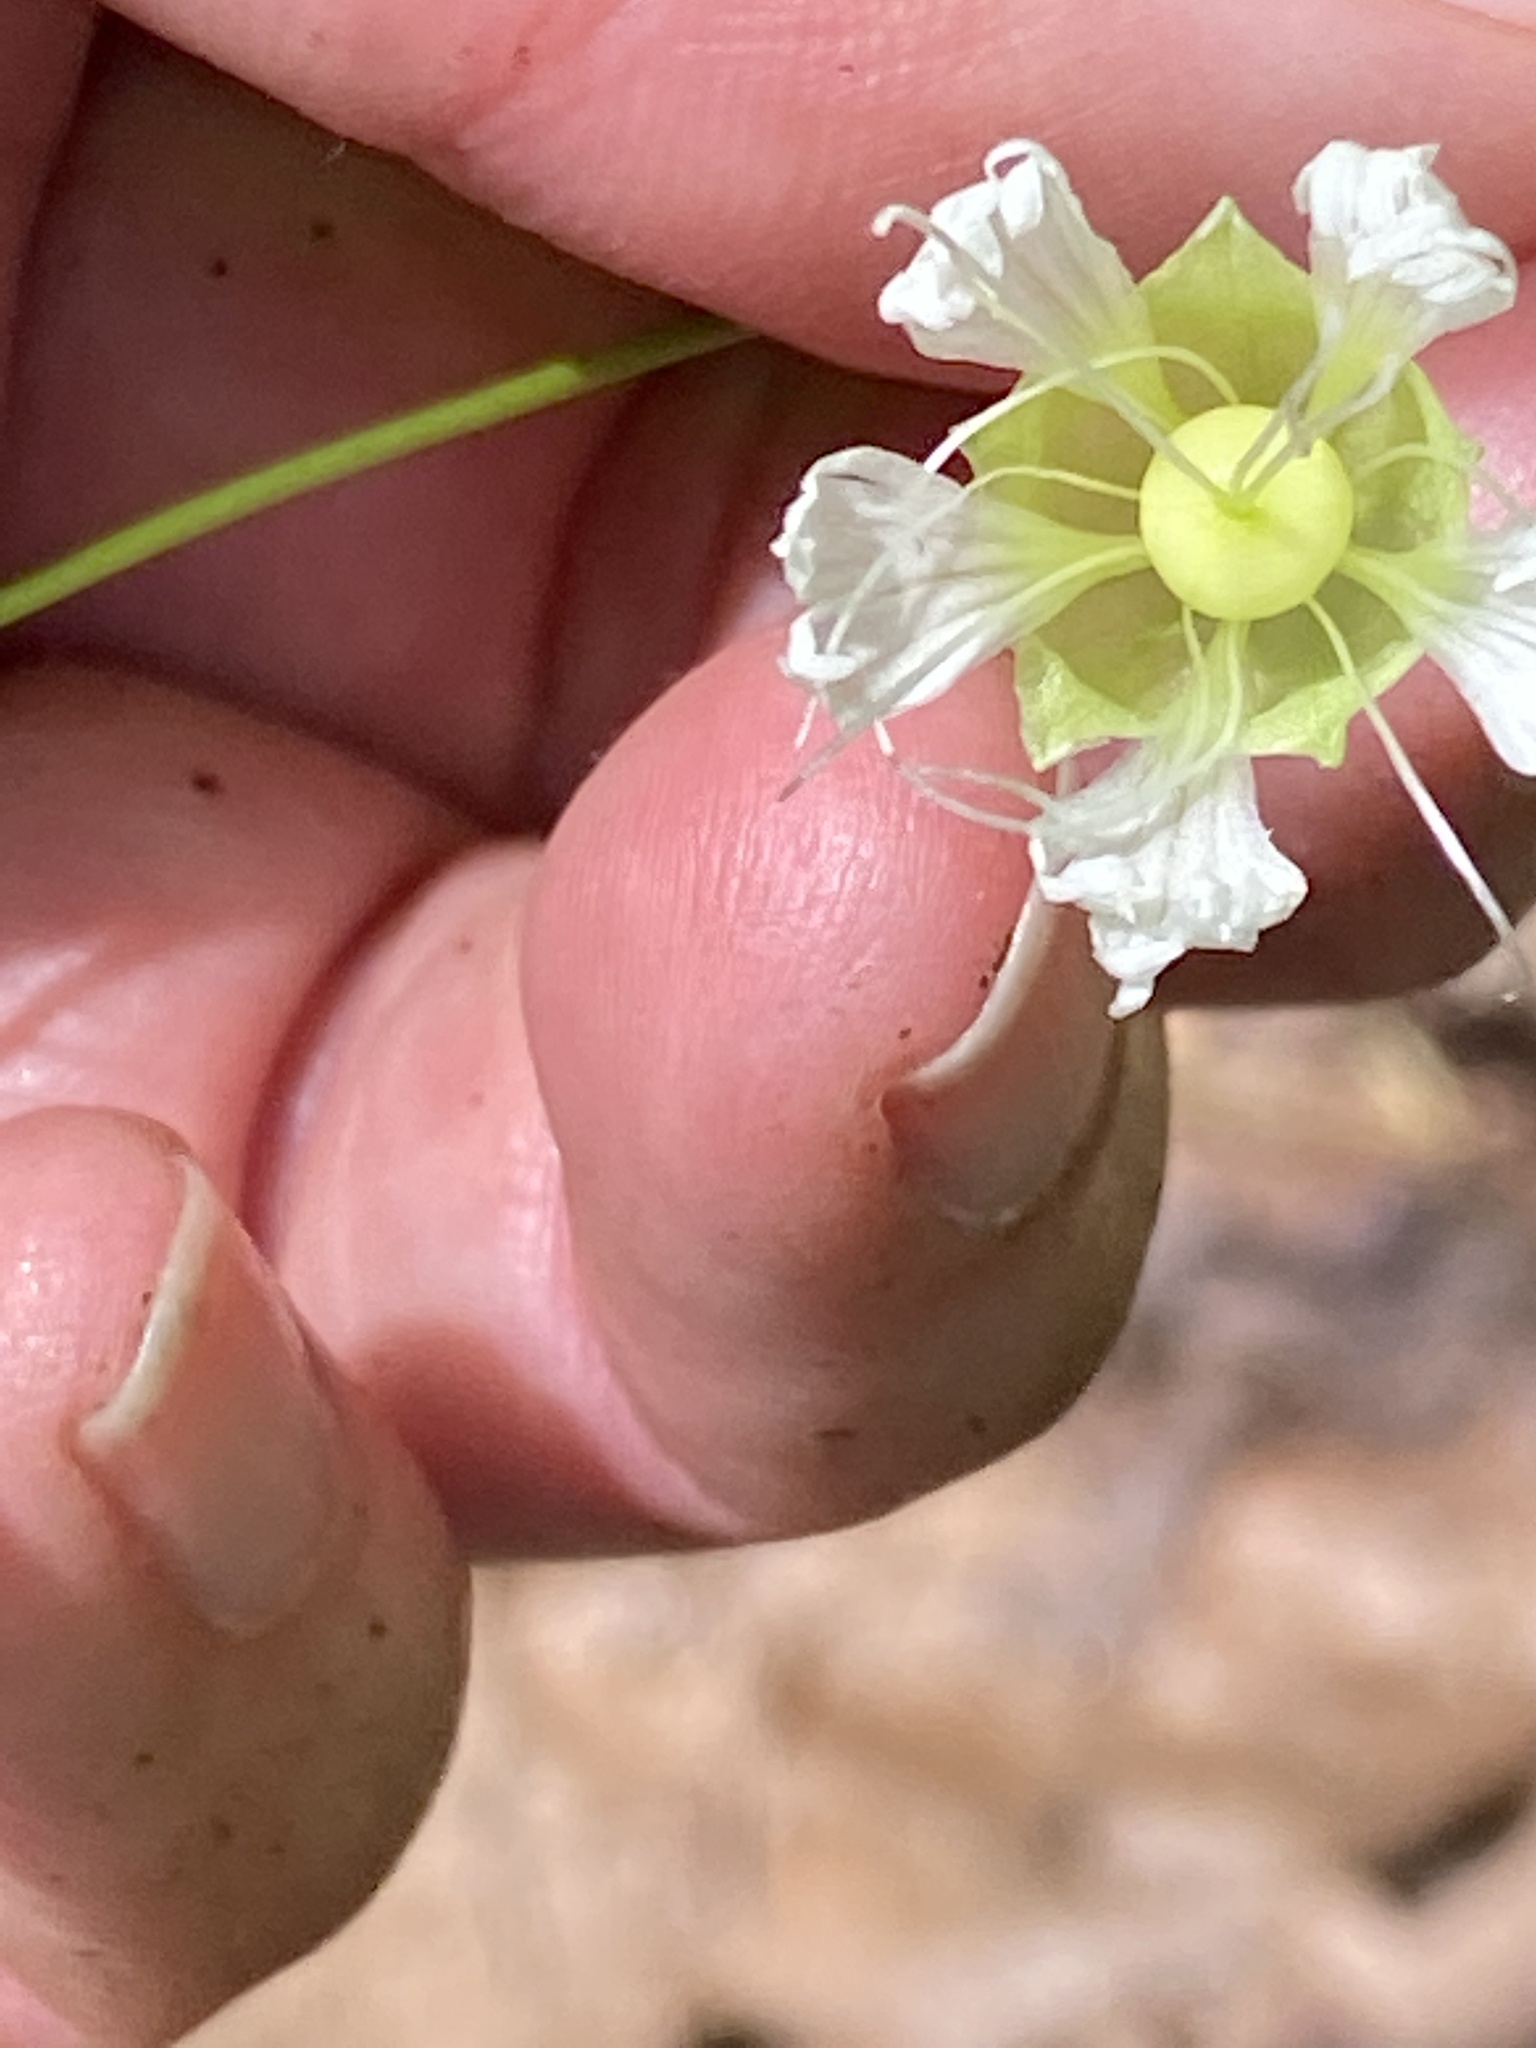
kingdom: Plantae
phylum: Tracheophyta
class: Magnoliopsida
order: Caryophyllales
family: Caryophyllaceae
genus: Silene
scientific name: Silene stellata
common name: Starry campion
